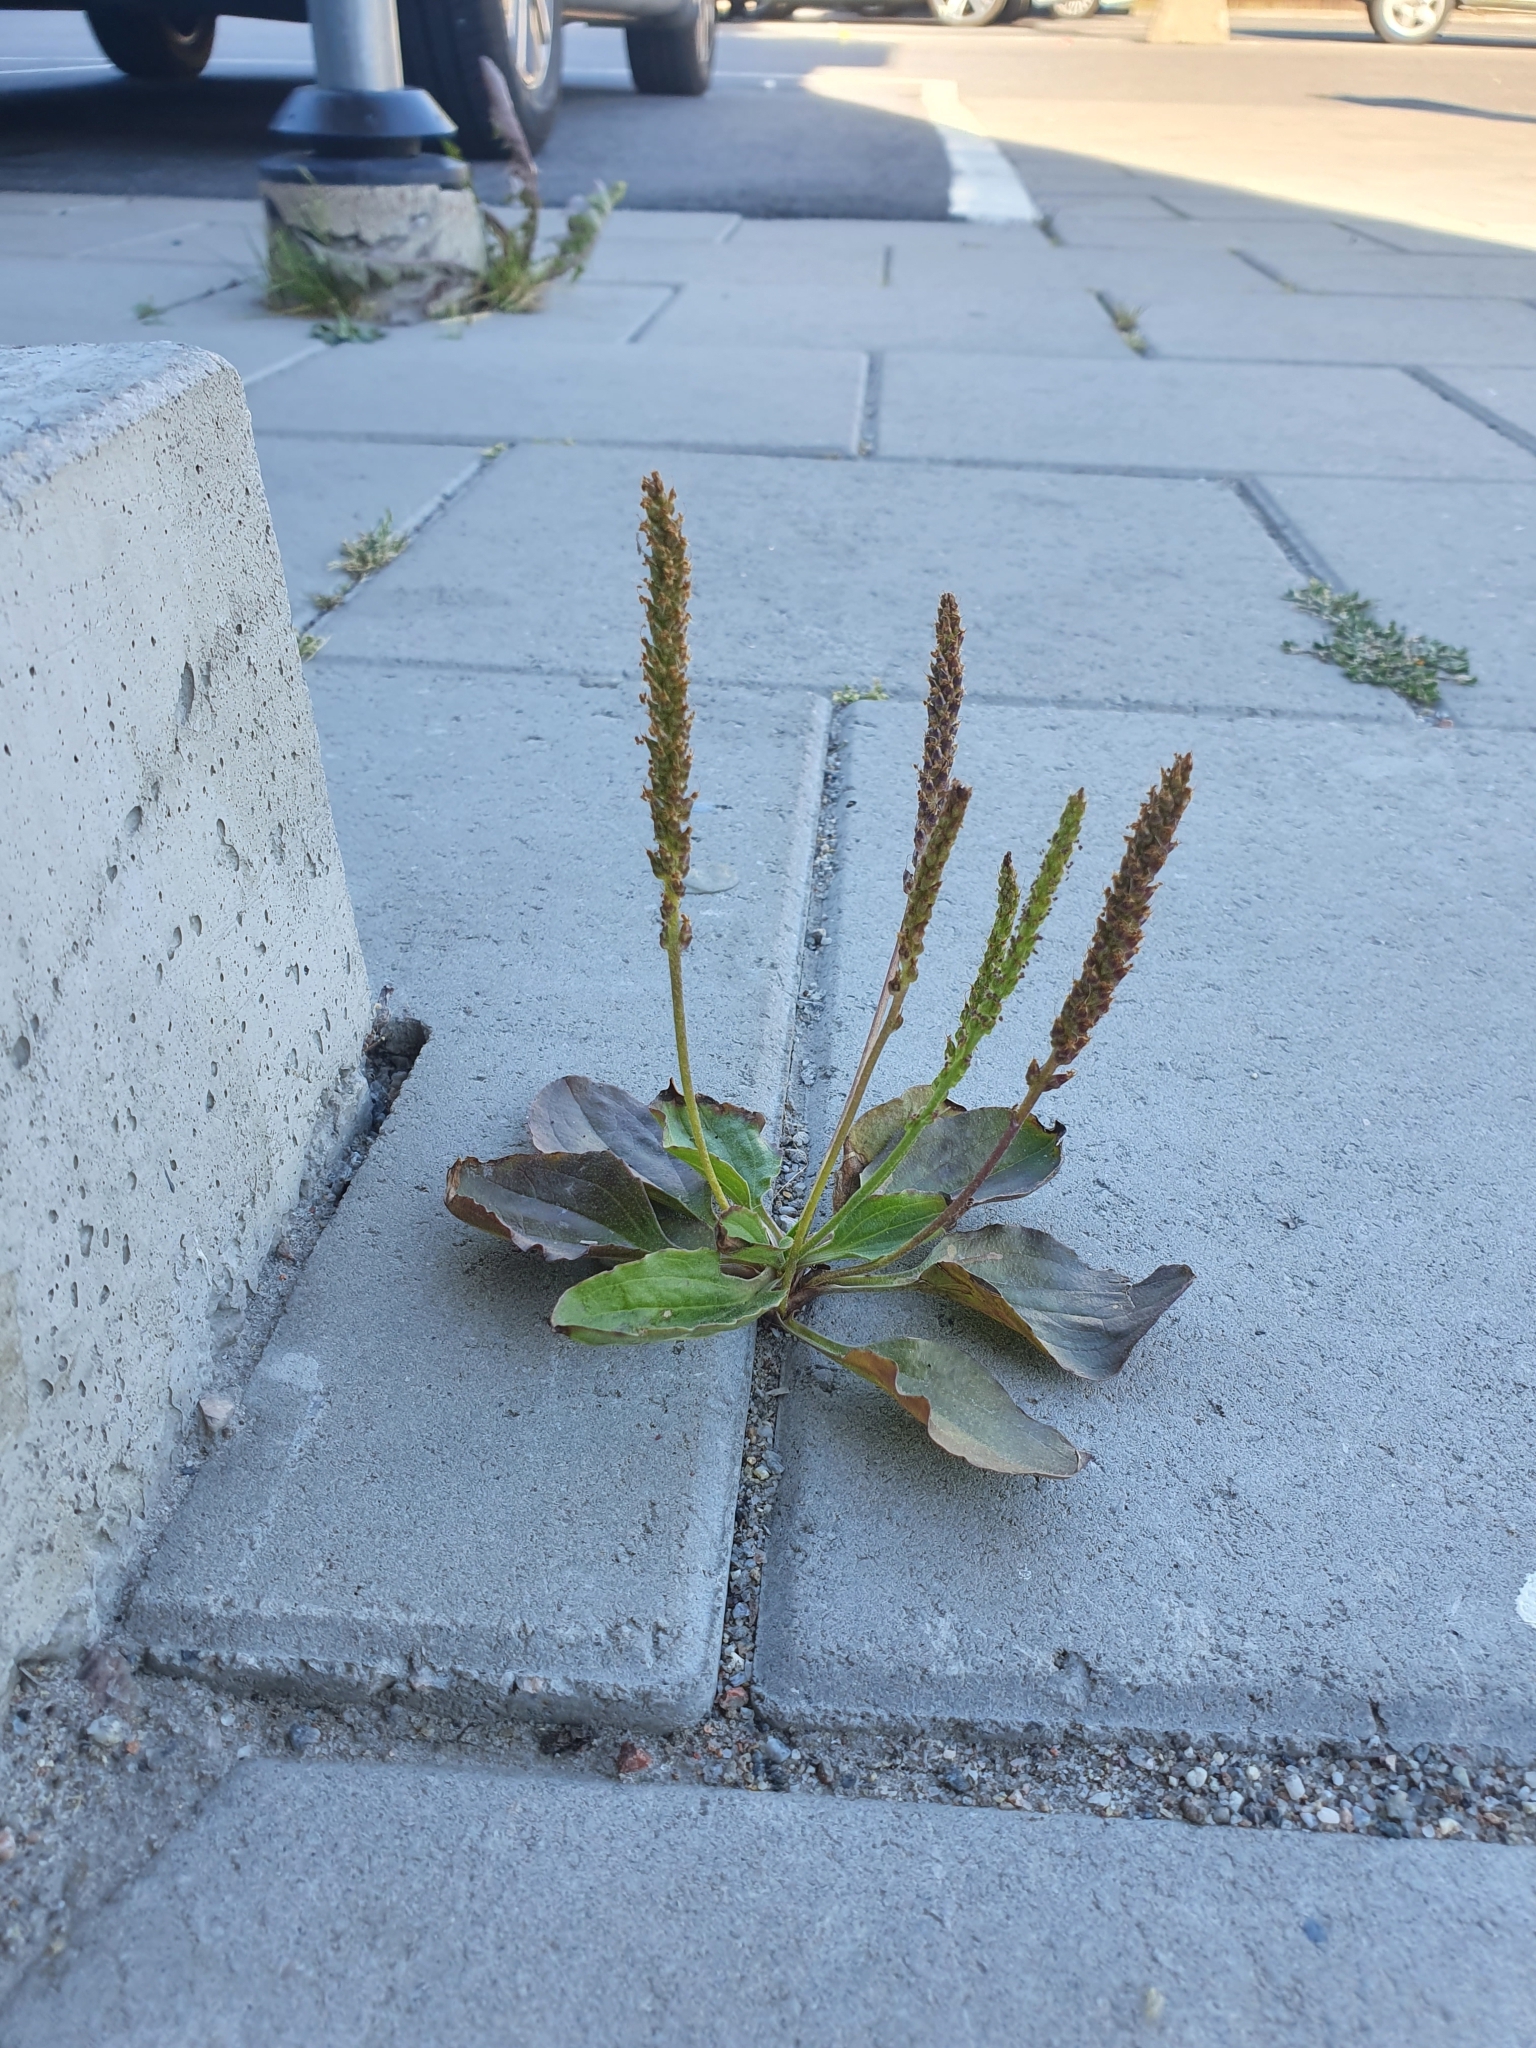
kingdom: Plantae
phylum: Tracheophyta
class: Magnoliopsida
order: Lamiales
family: Plantaginaceae
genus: Plantago
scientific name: Plantago major
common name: Common plantain
